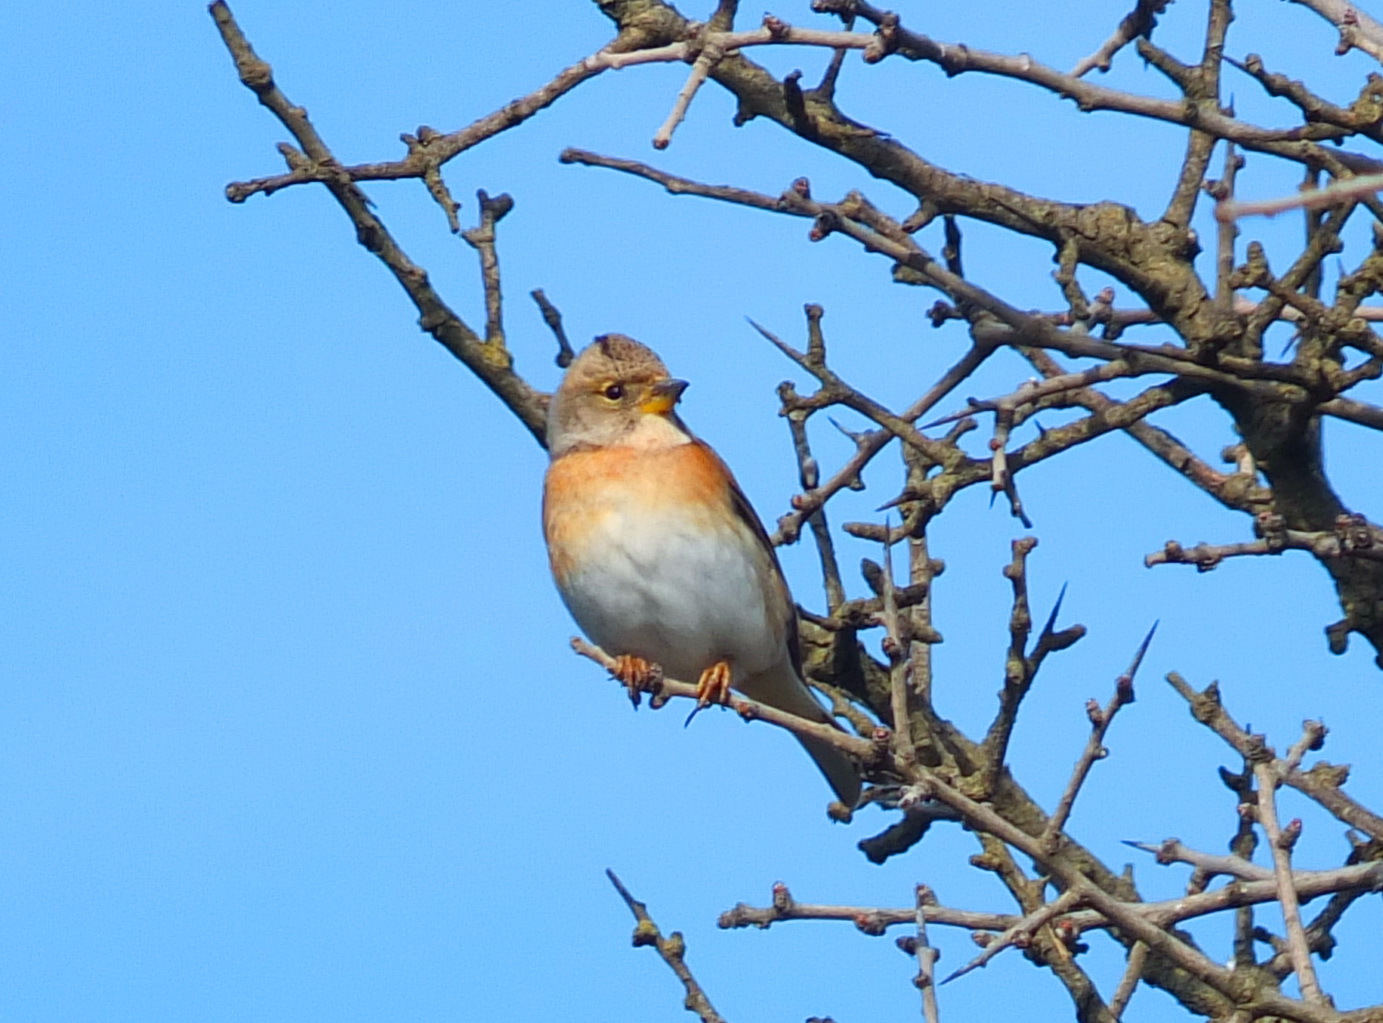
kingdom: Animalia
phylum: Chordata
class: Aves
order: Passeriformes
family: Fringillidae
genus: Fringilla
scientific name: Fringilla montifringilla
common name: Brambling
